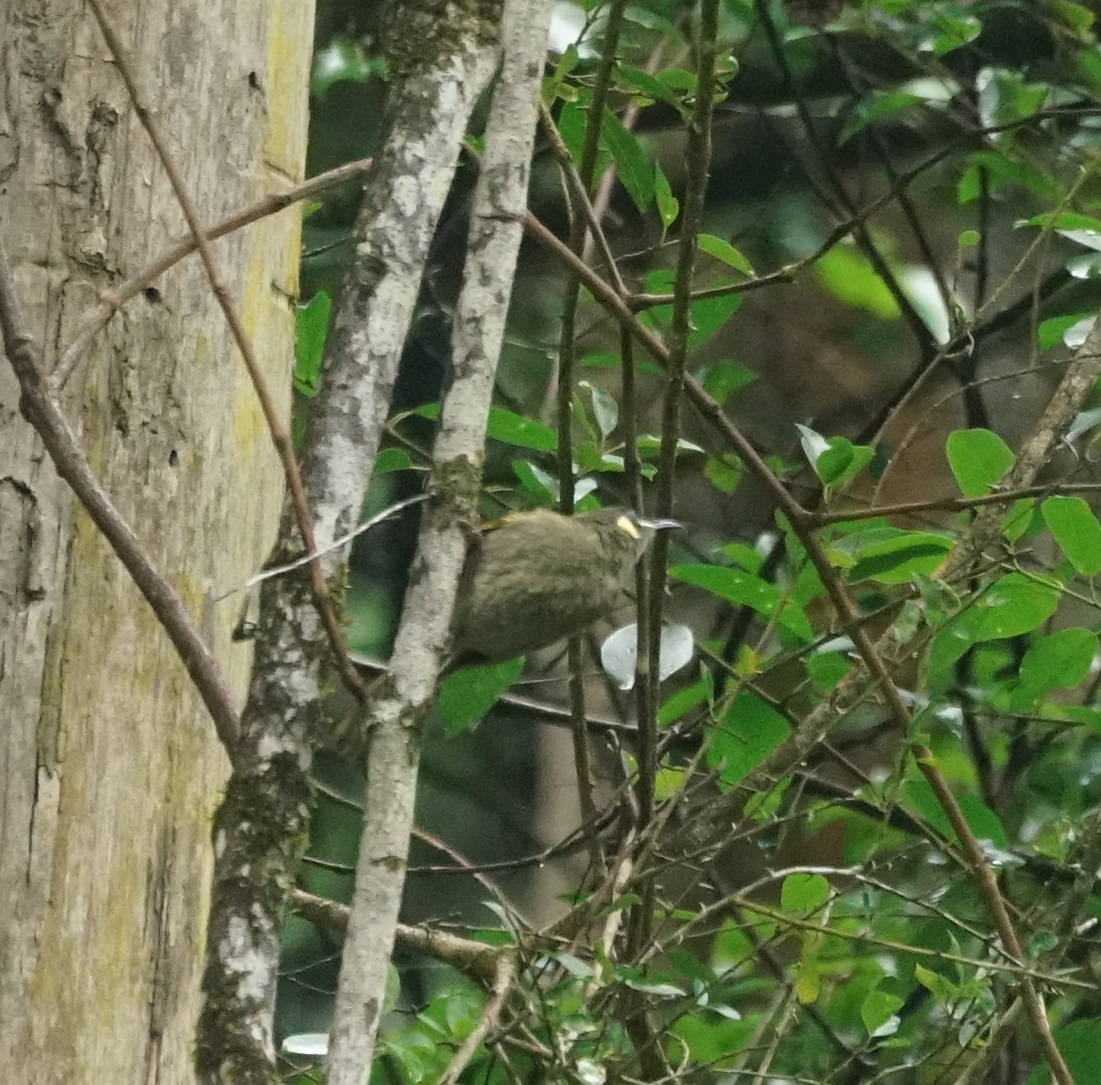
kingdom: Animalia
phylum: Chordata
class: Aves
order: Passeriformes
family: Meliphagidae
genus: Meliphaga
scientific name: Meliphaga lewinii
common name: Lewin's honeyeater
